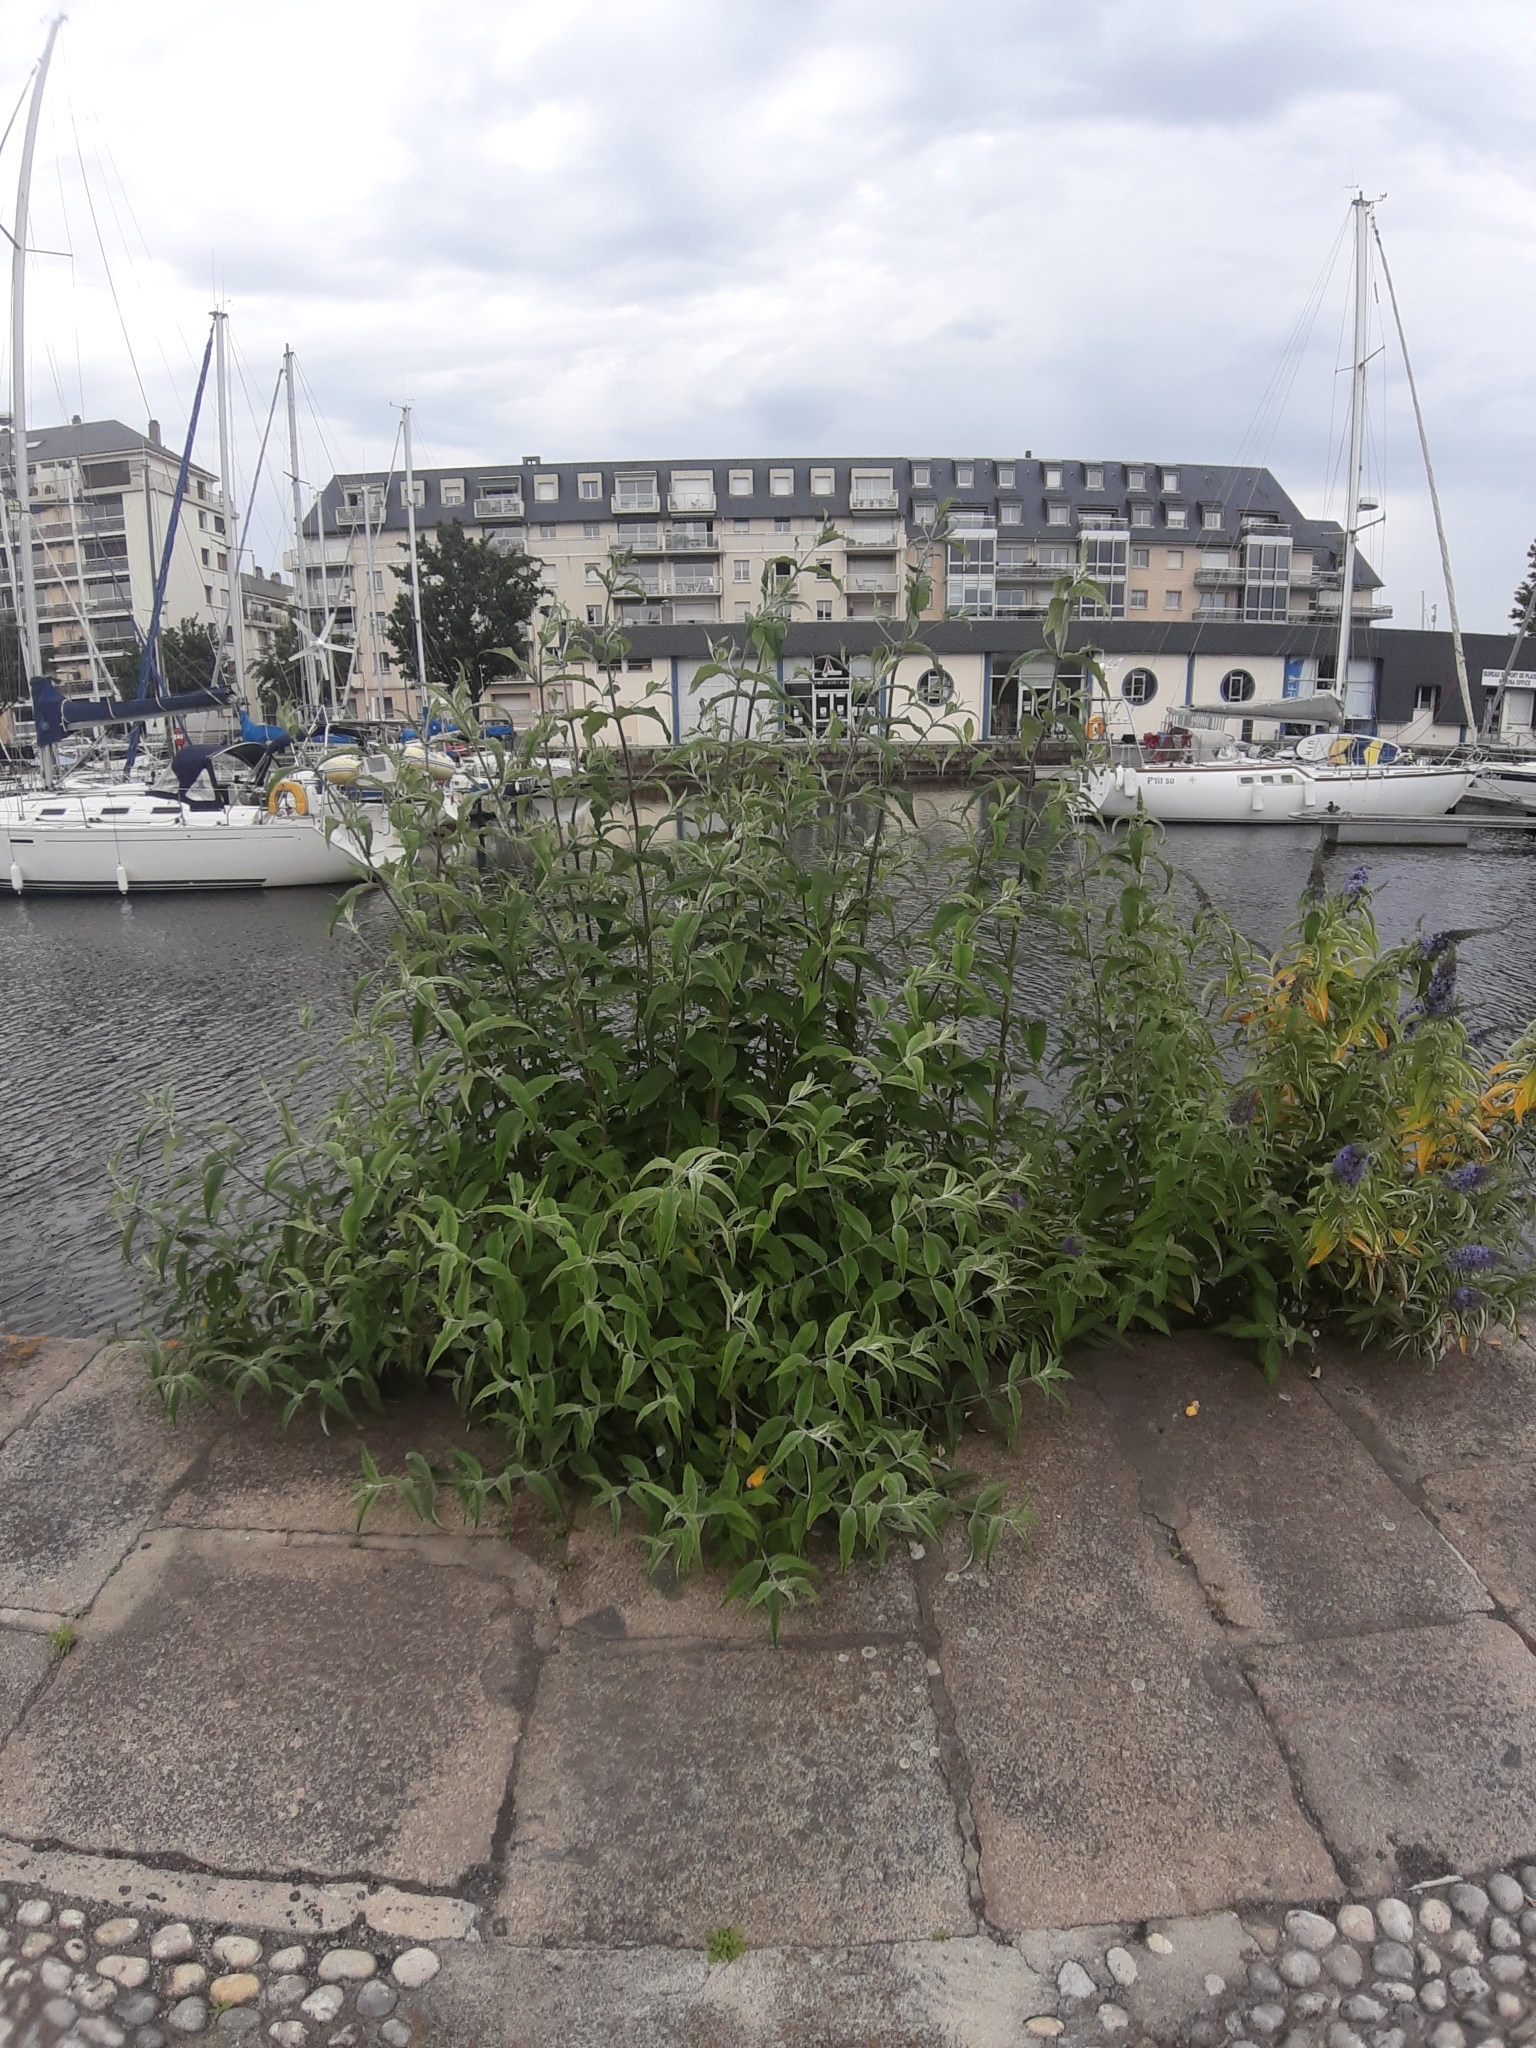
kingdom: Plantae
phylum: Tracheophyta
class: Magnoliopsida
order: Lamiales
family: Scrophulariaceae
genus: Buddleja
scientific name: Buddleja davidii
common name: Butterfly-bush
